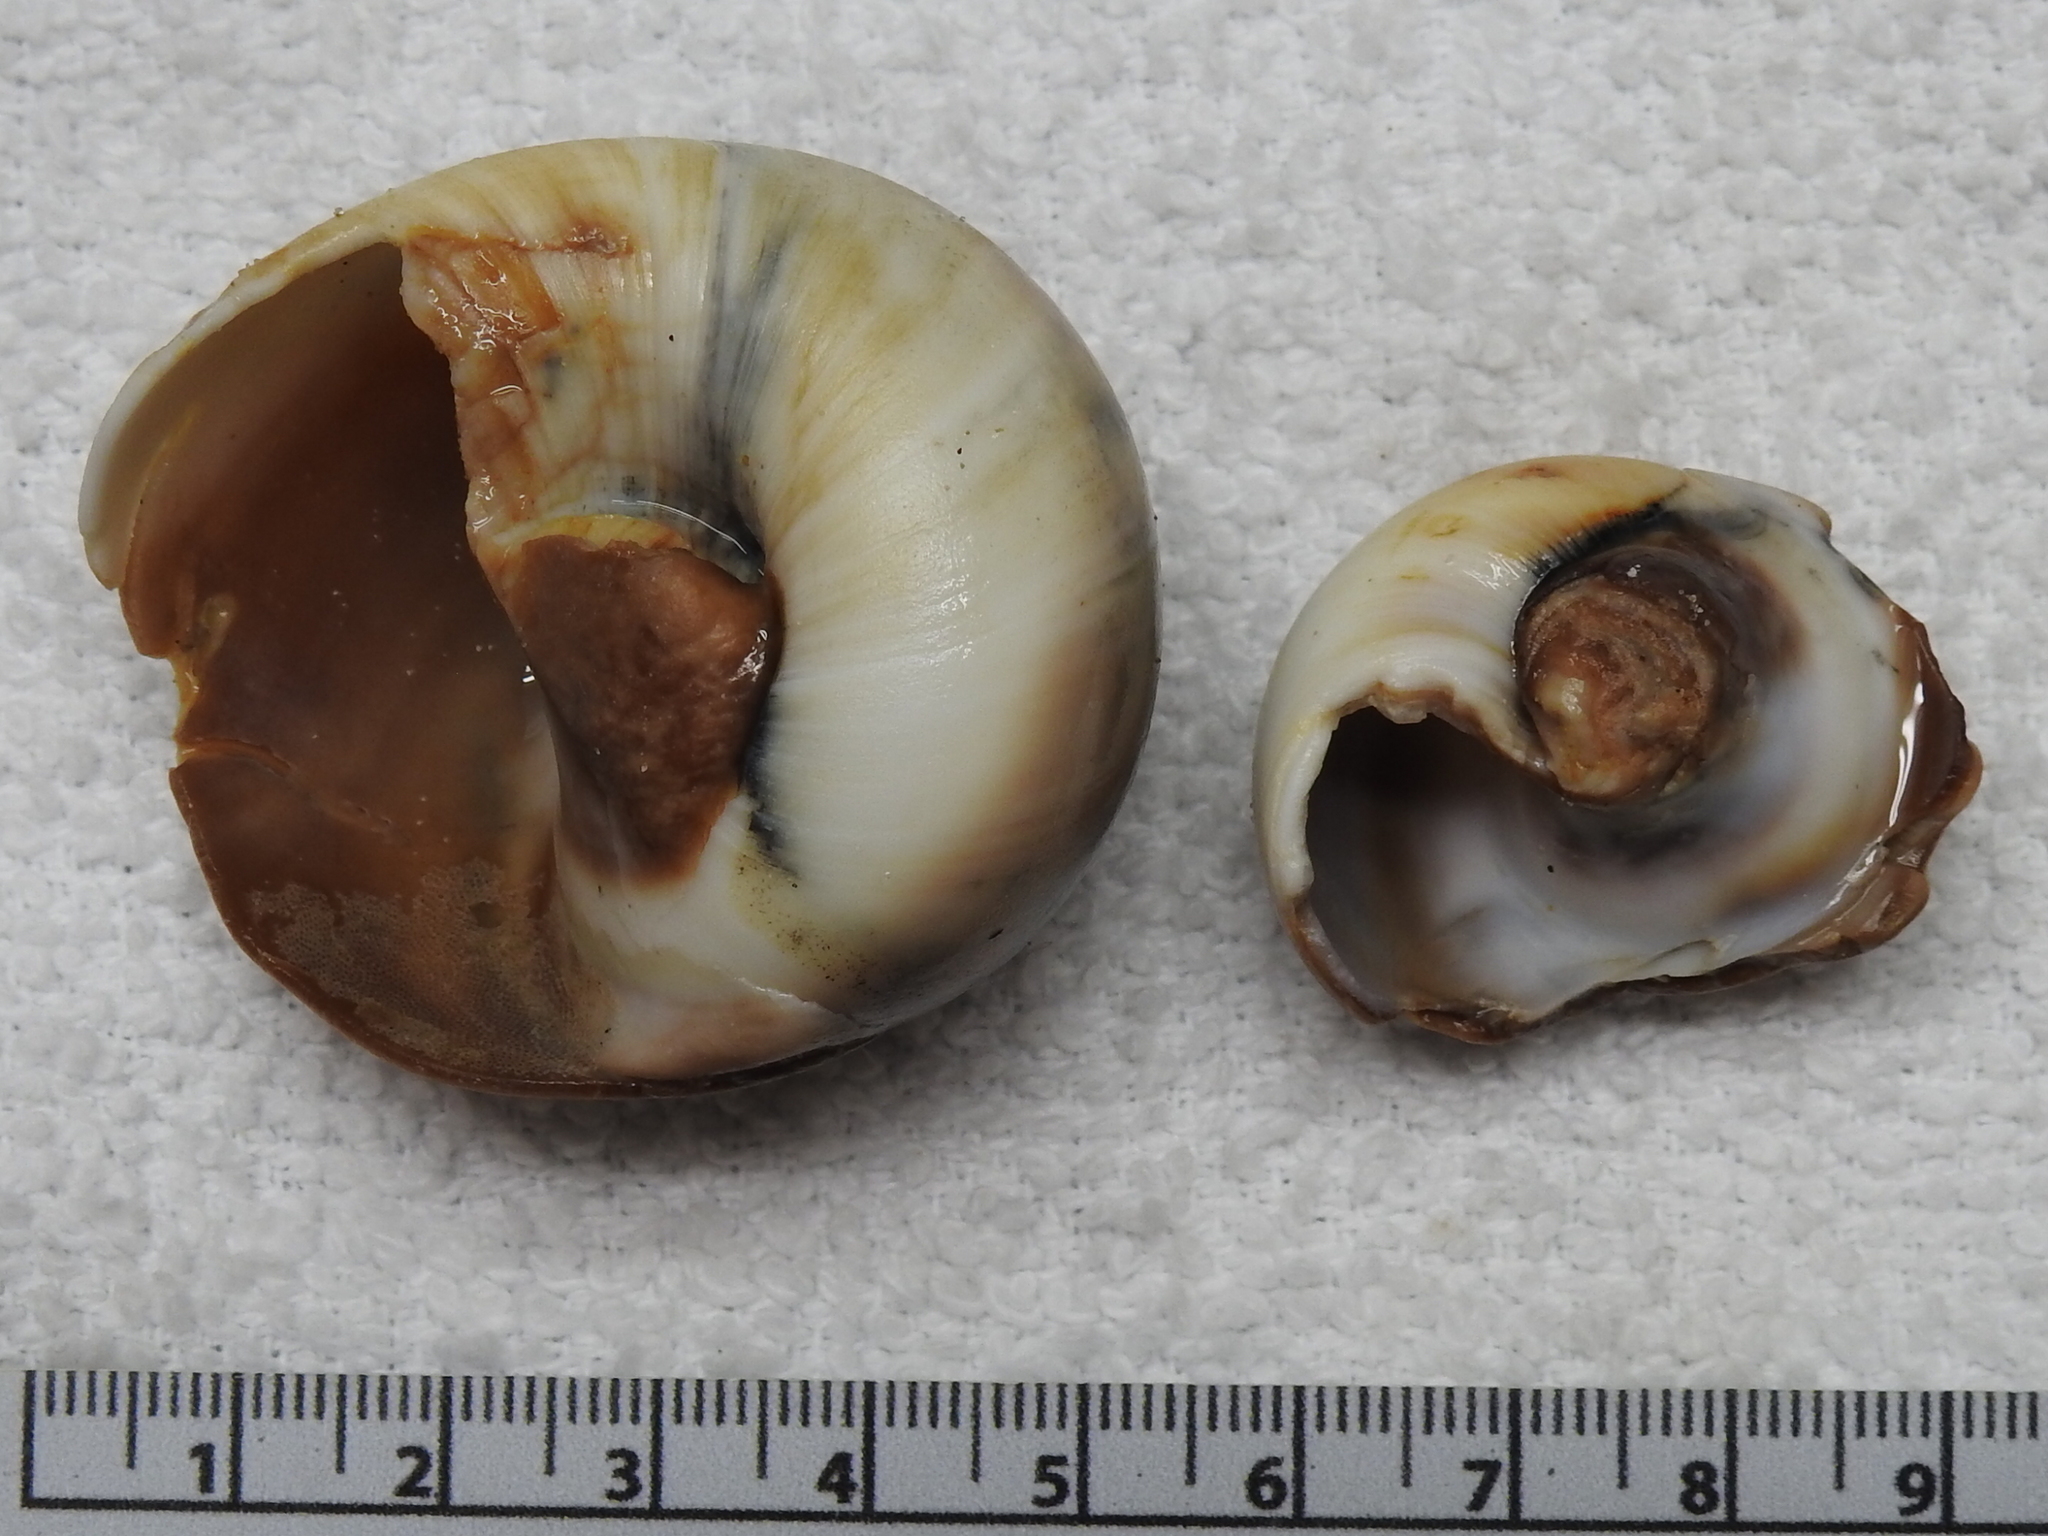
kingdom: Animalia
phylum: Mollusca
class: Gastropoda
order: Littorinimorpha
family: Naticidae
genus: Neverita
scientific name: Neverita duplicata
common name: Lobed moonsnail
